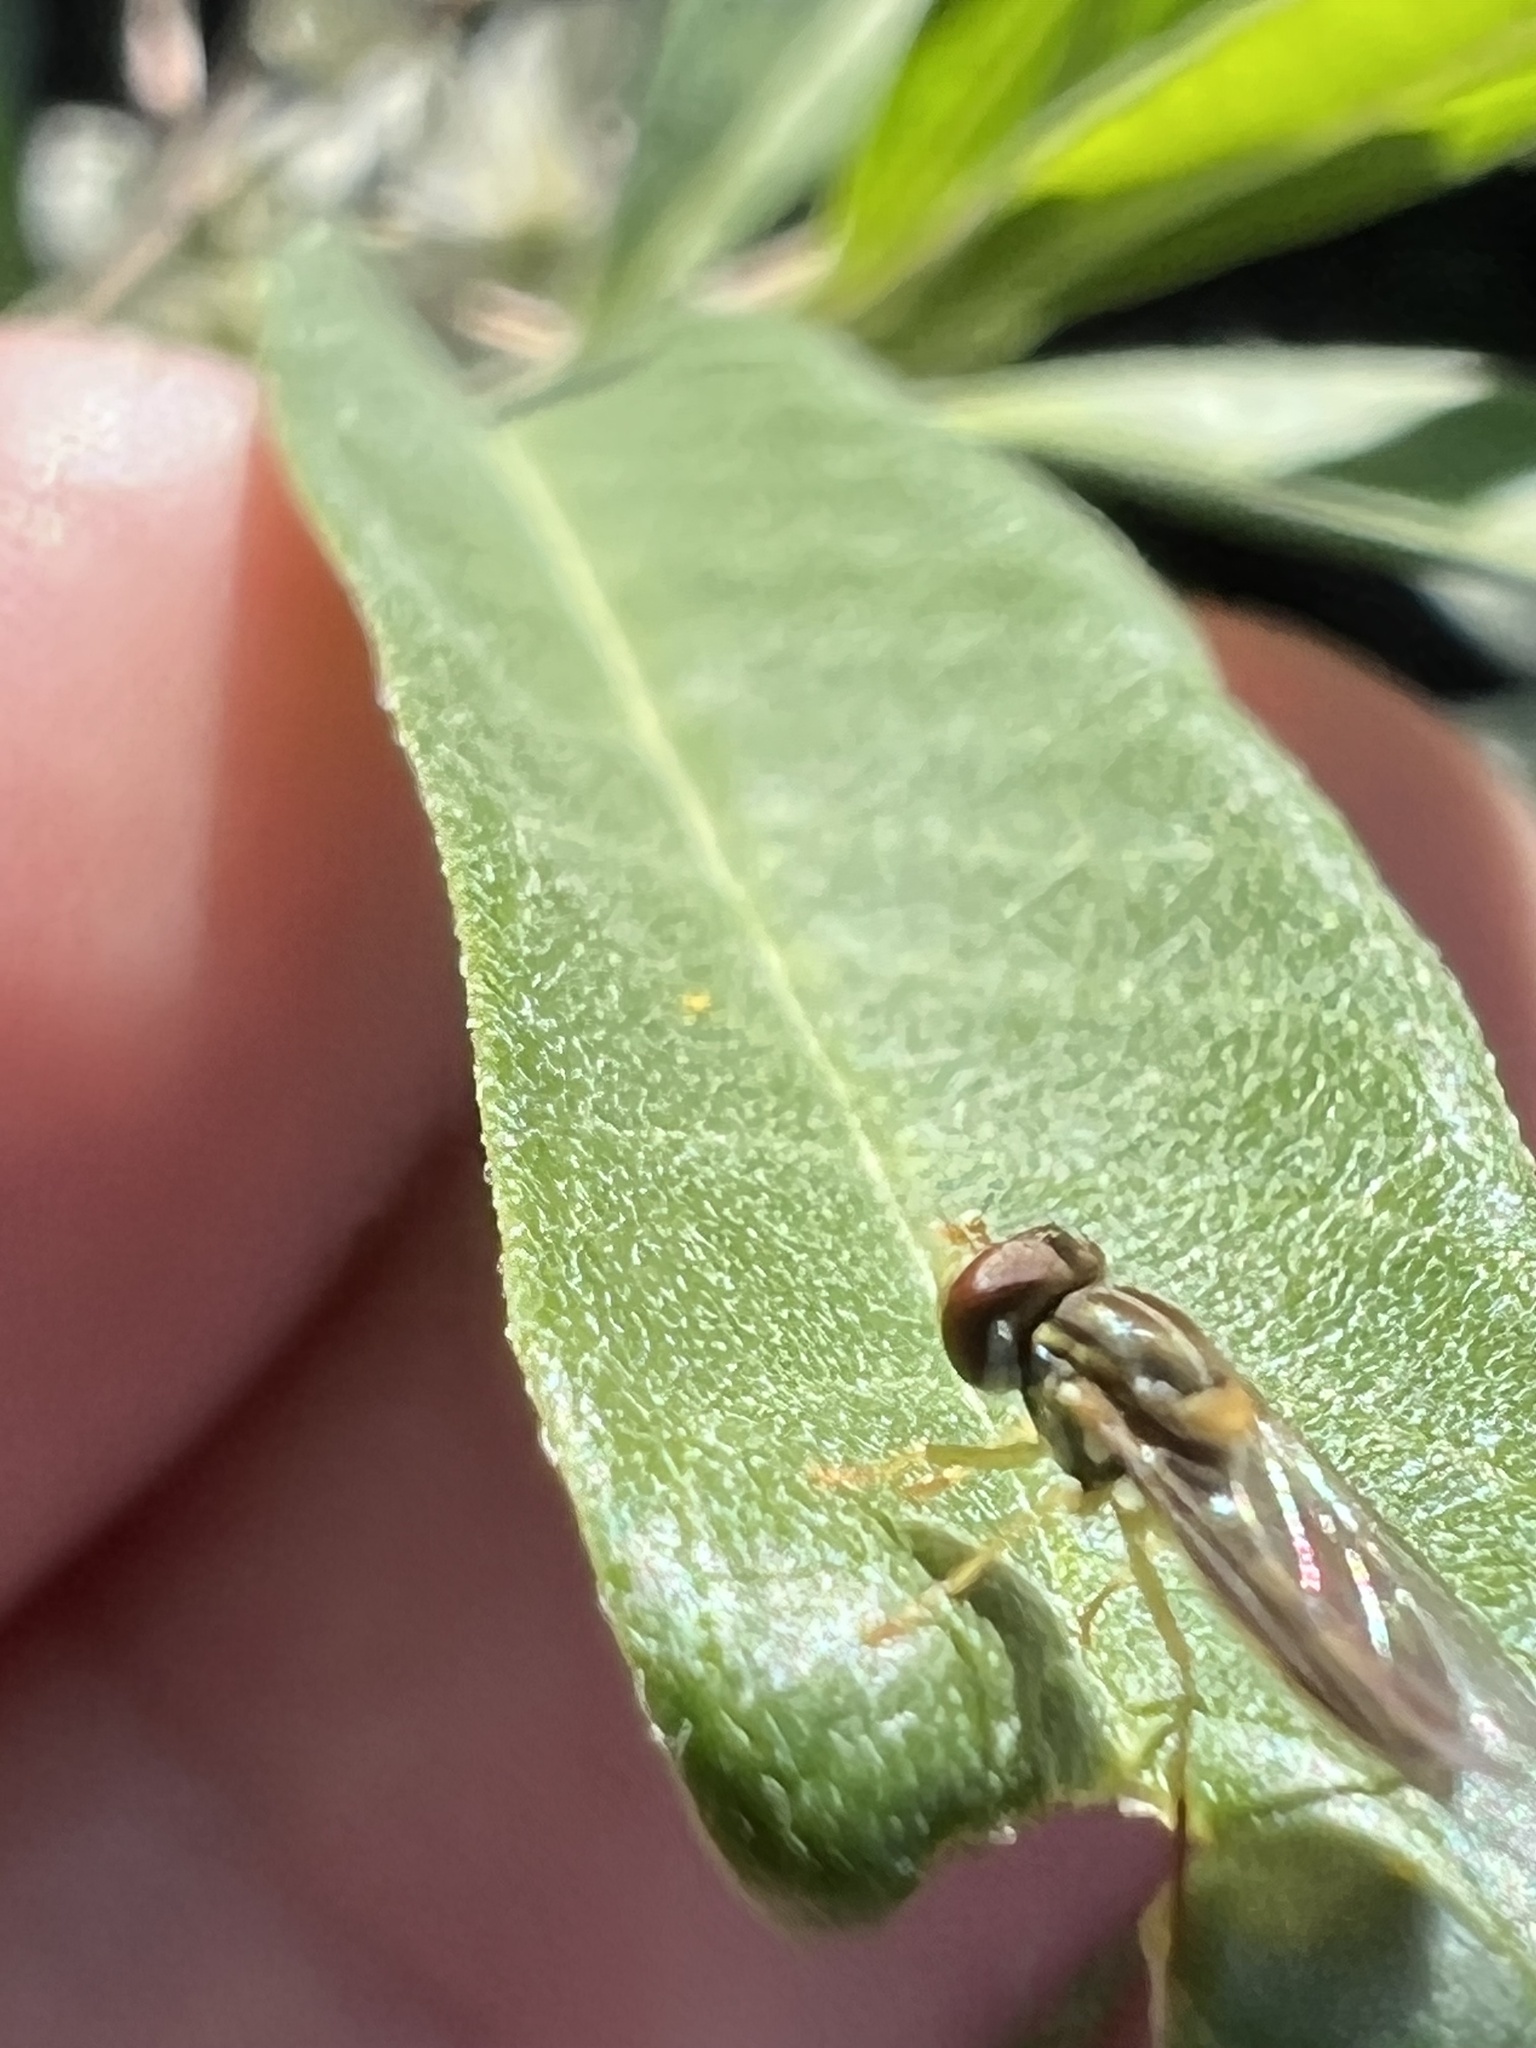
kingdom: Animalia
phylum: Arthropoda
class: Insecta
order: Diptera
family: Syrphidae
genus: Toxomerus
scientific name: Toxomerus marginatus
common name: Syrphid fly
